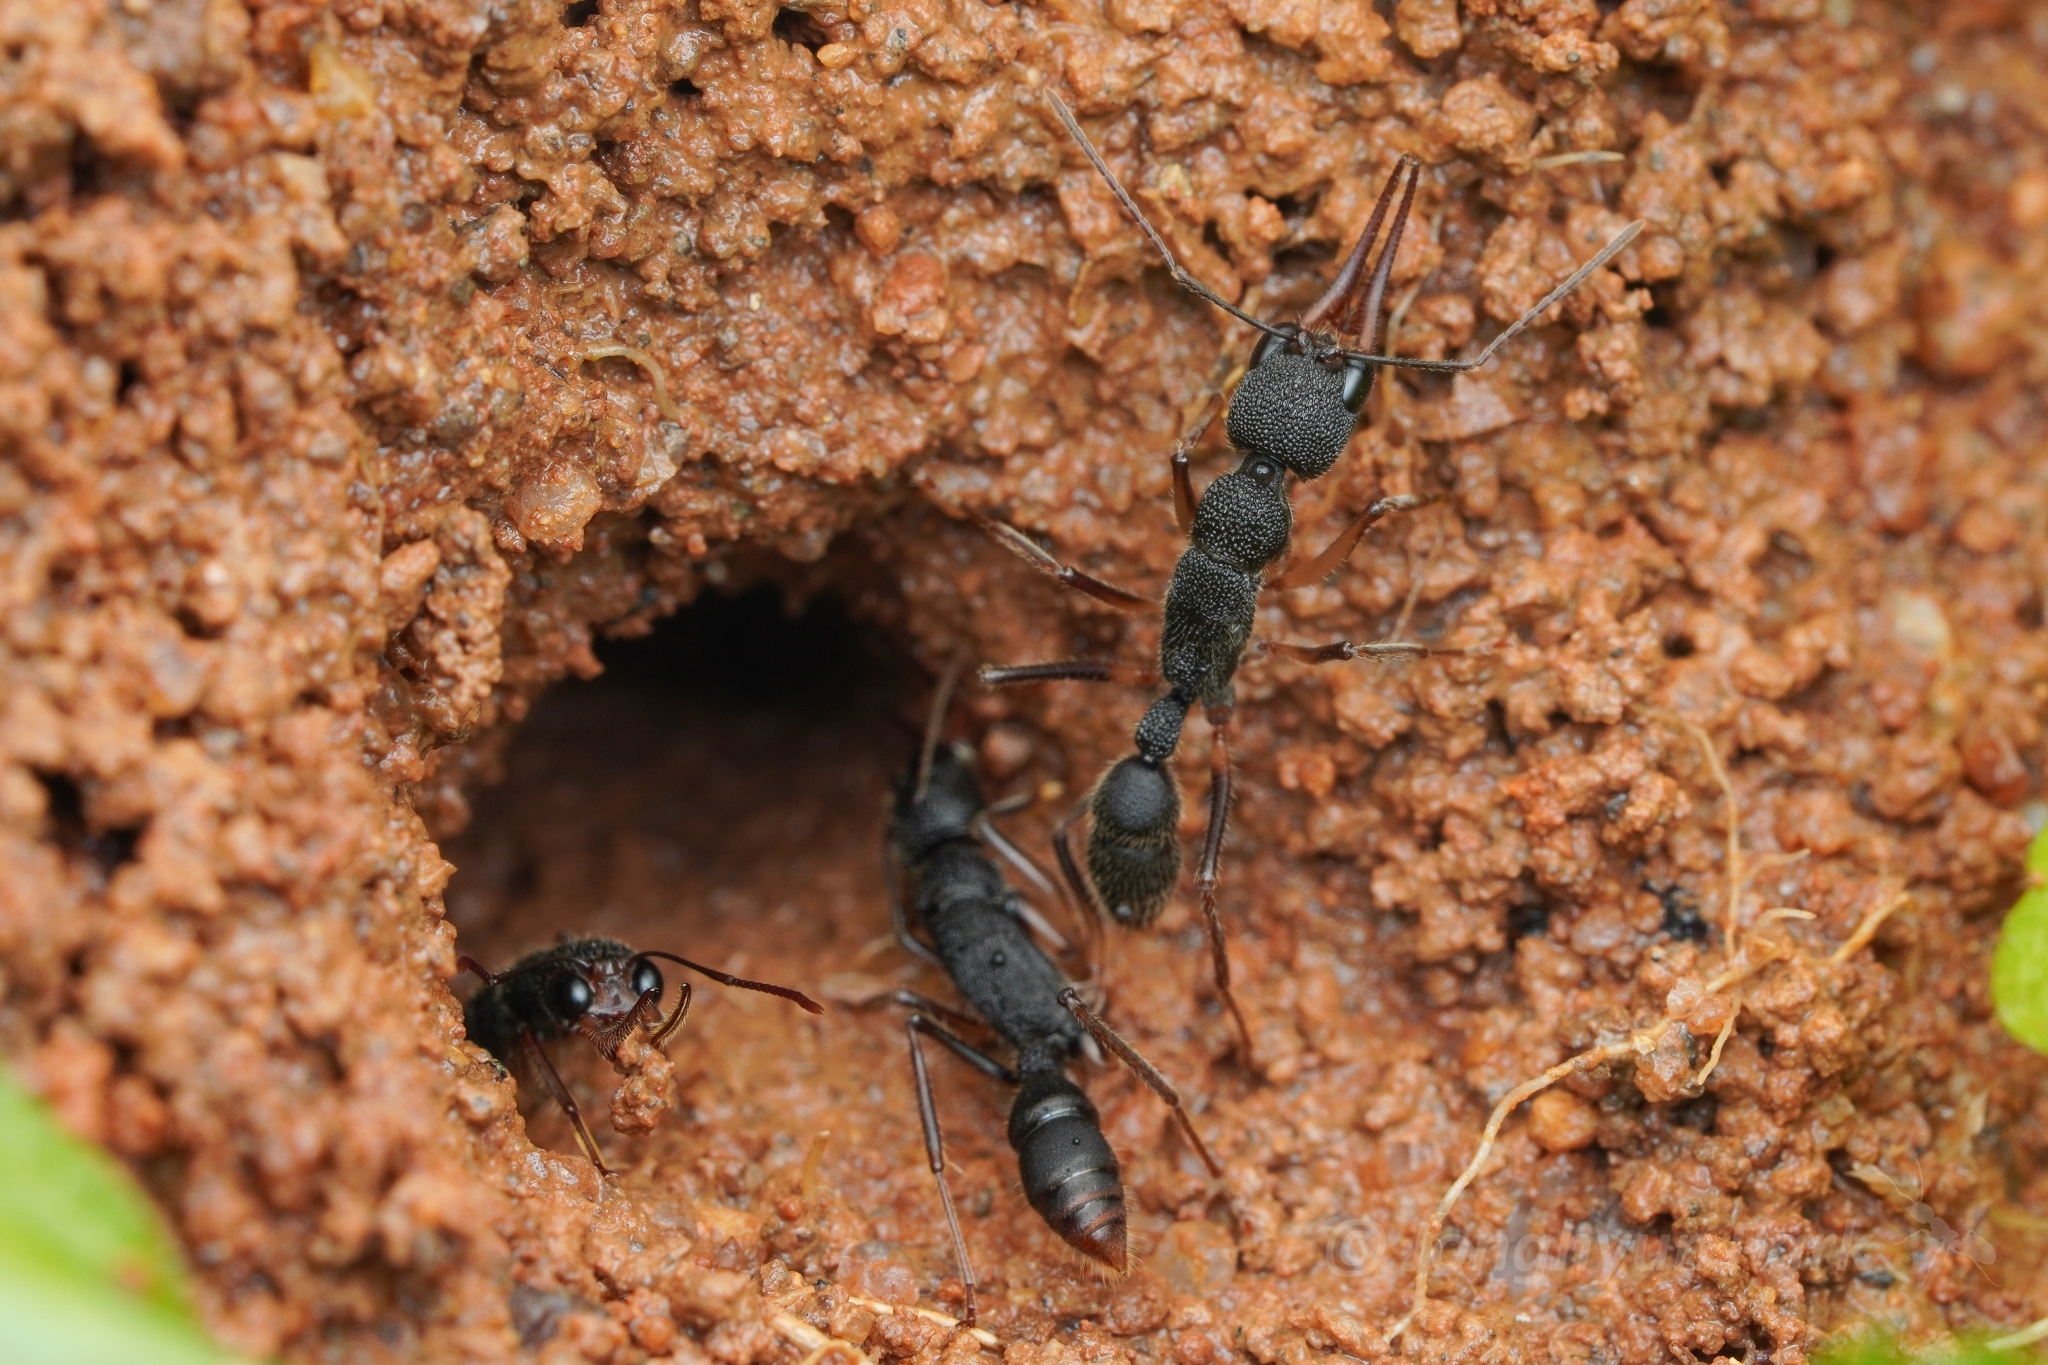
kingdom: Animalia
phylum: Arthropoda
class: Insecta
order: Hymenoptera
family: Formicidae
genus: Harpegnathos
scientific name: Harpegnathos venator
